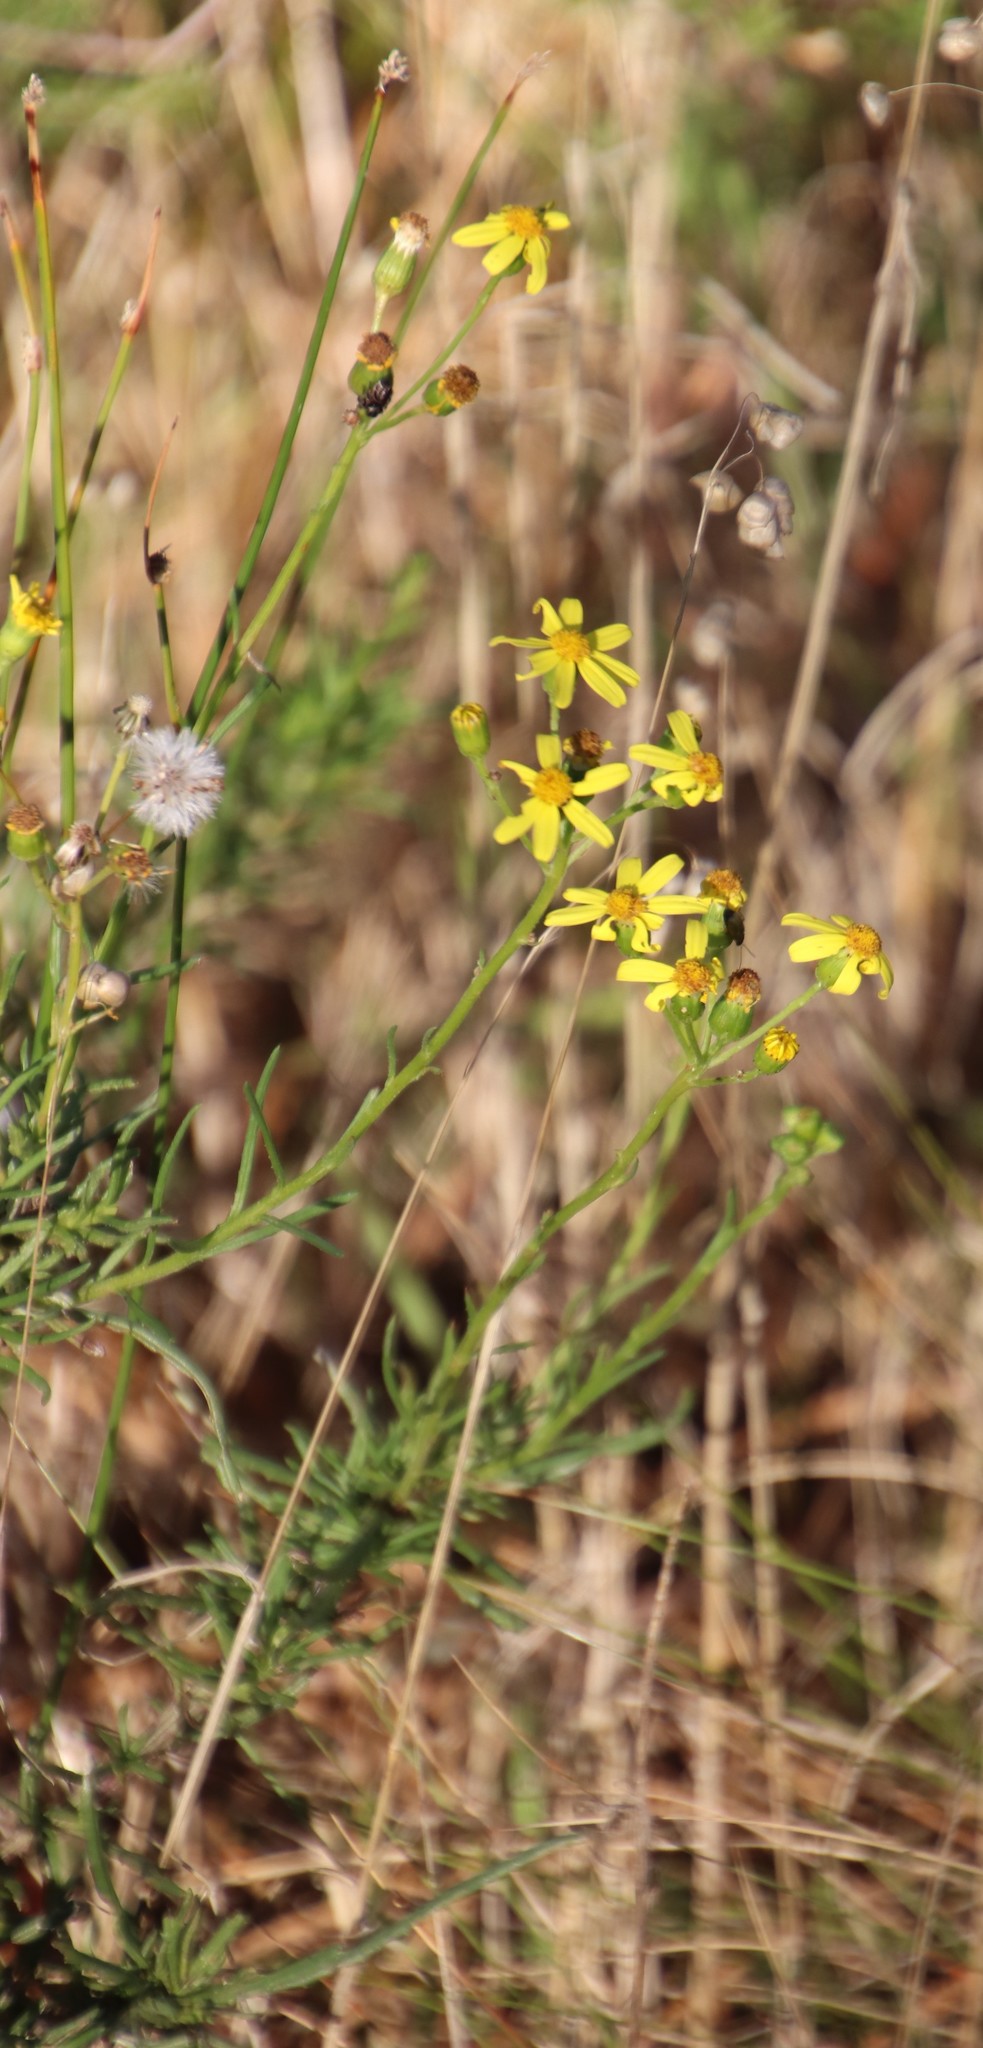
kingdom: Plantae
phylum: Tracheophyta
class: Magnoliopsida
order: Asterales
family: Asteraceae
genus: Senecio
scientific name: Senecio burchellii
